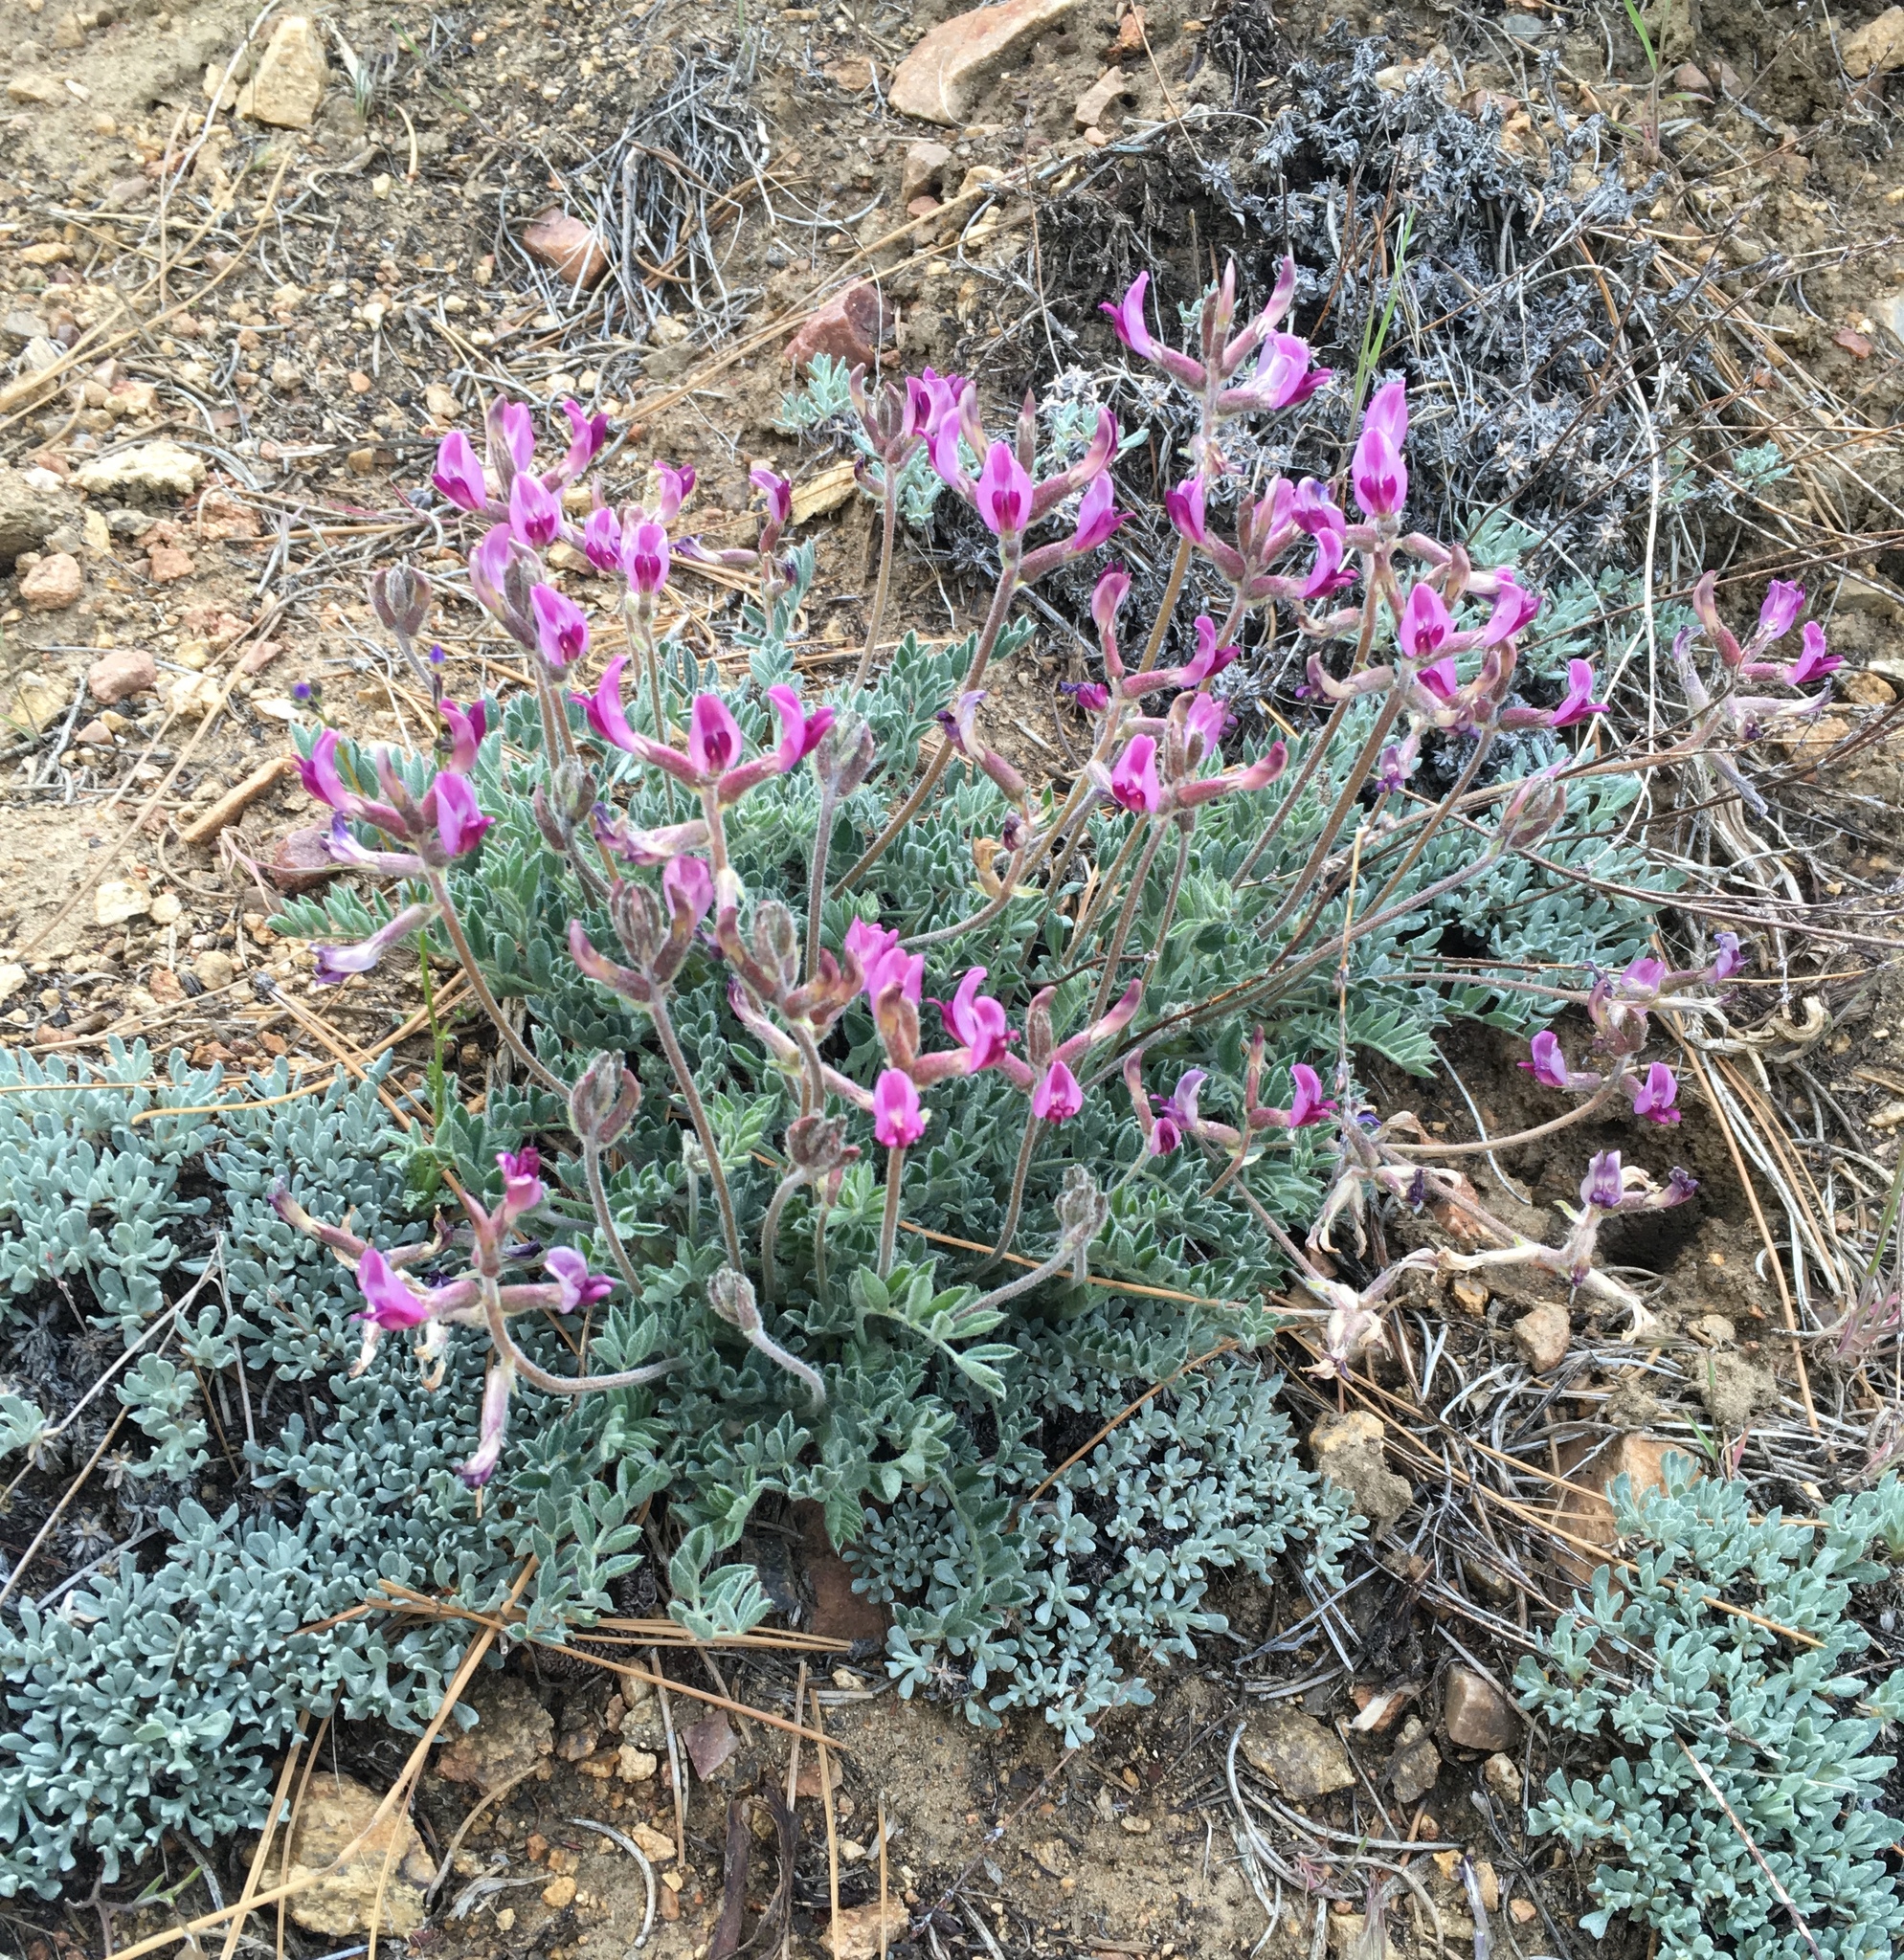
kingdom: Plantae
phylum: Tracheophyta
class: Magnoliopsida
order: Fabales
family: Fabaceae
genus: Astragalus
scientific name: Astragalus leucolobus
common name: Big bear valley woollypod
